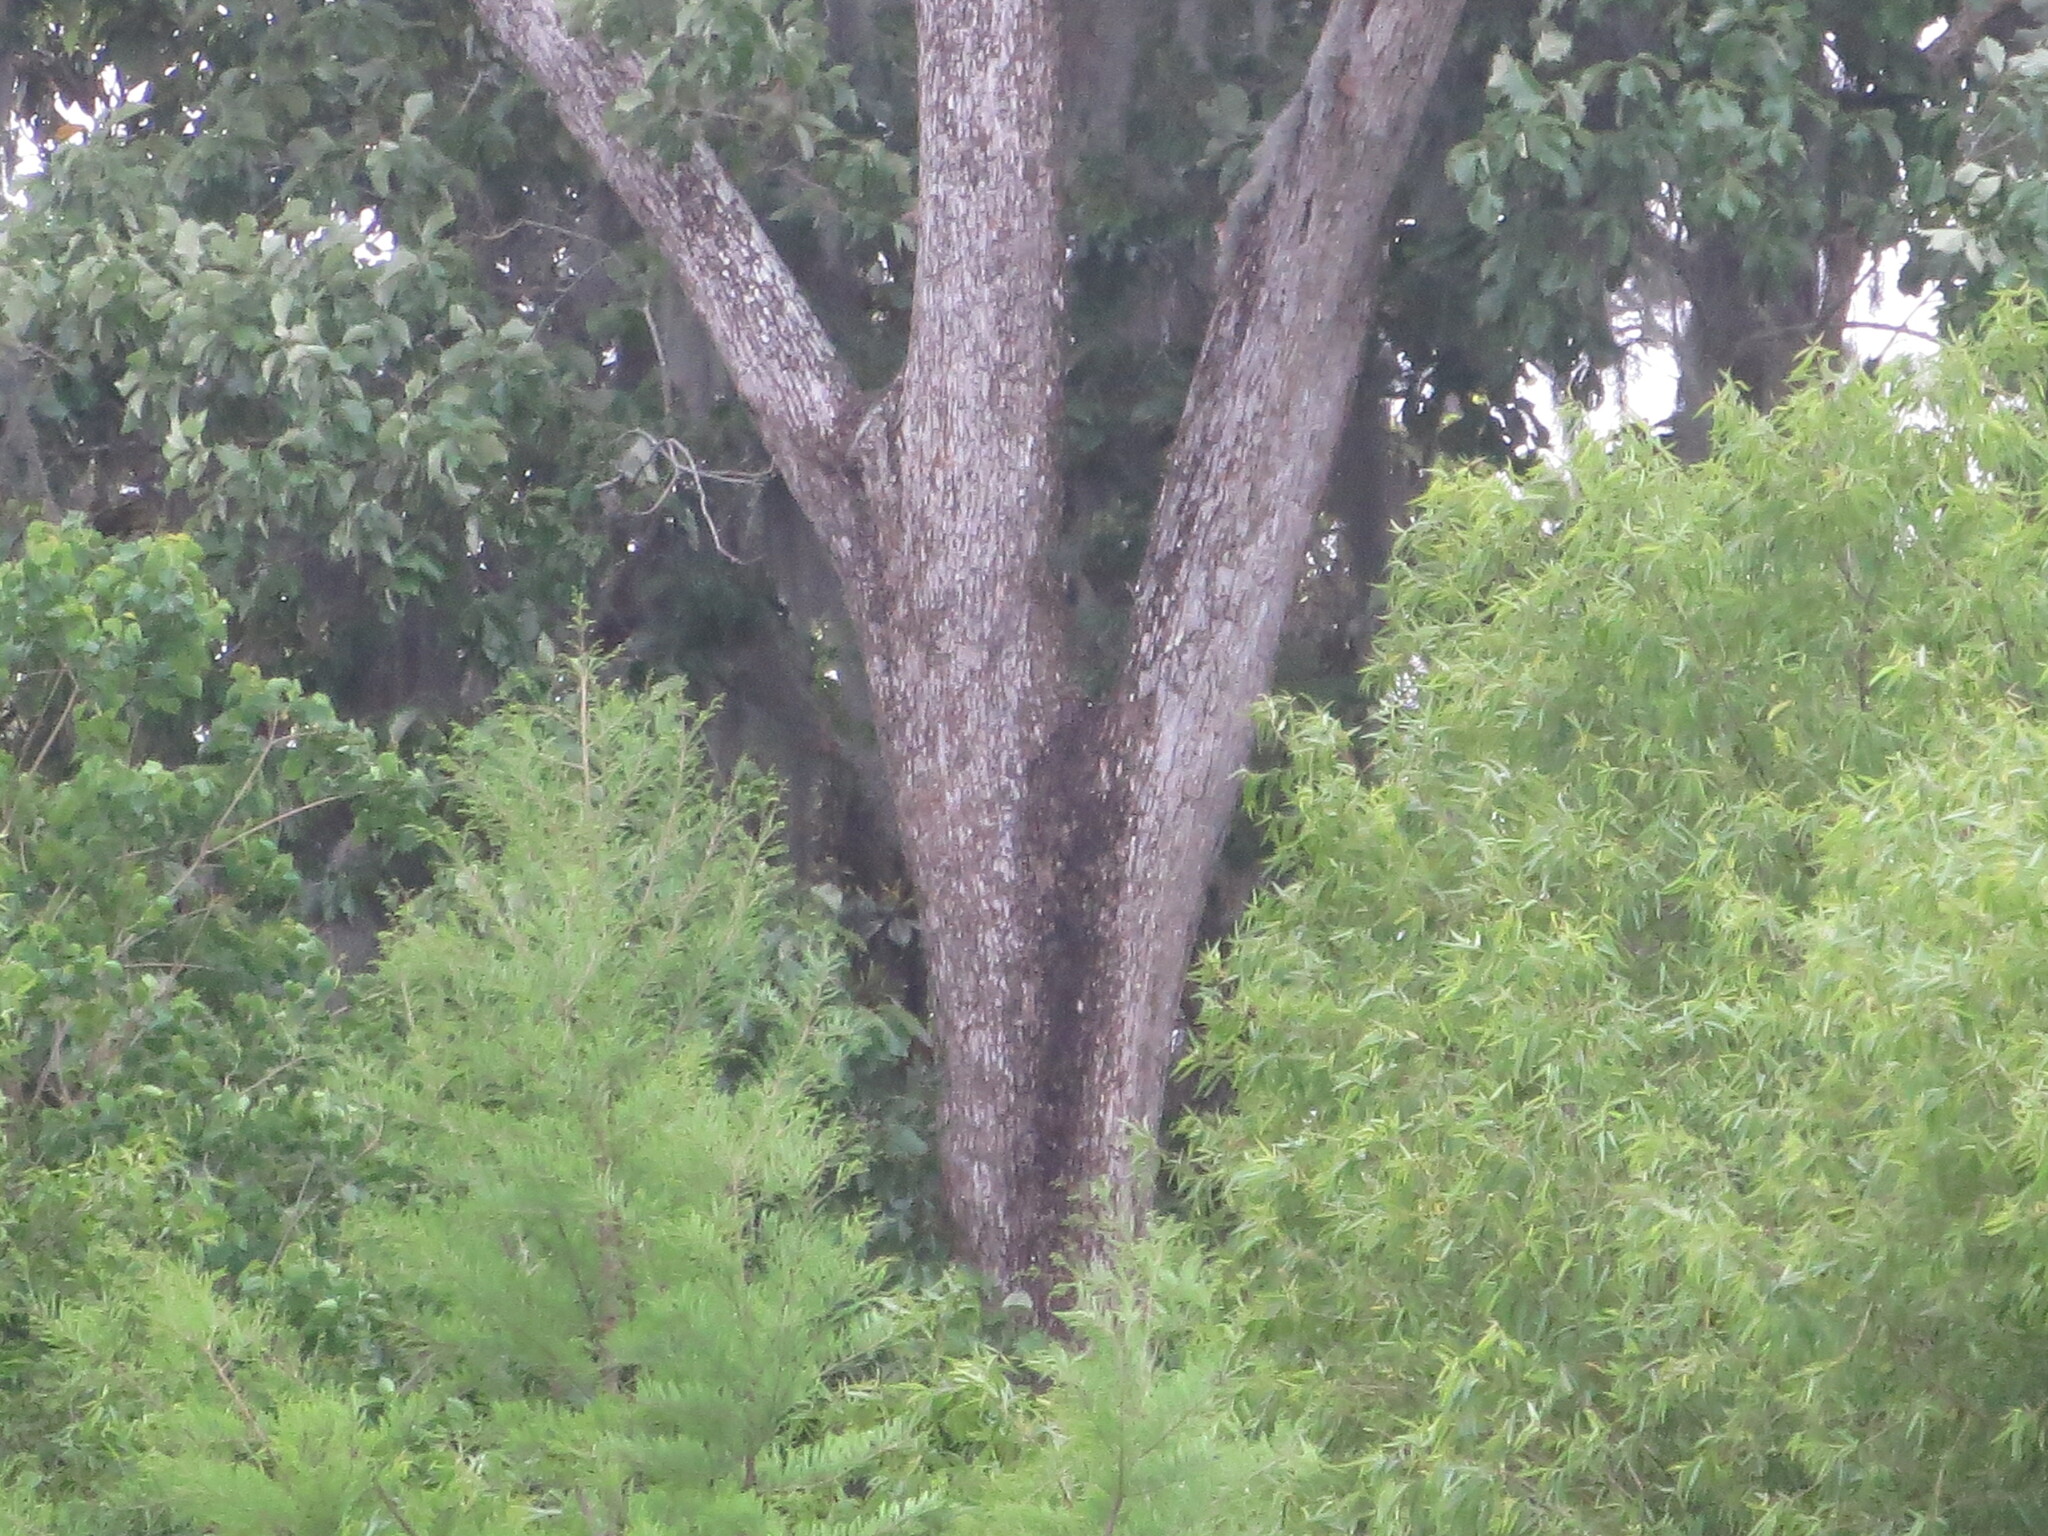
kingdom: Plantae
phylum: Tracheophyta
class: Magnoliopsida
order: Fagales
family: Fagaceae
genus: Quercus
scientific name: Quercus michauxii
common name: Swamp chestnut oak
